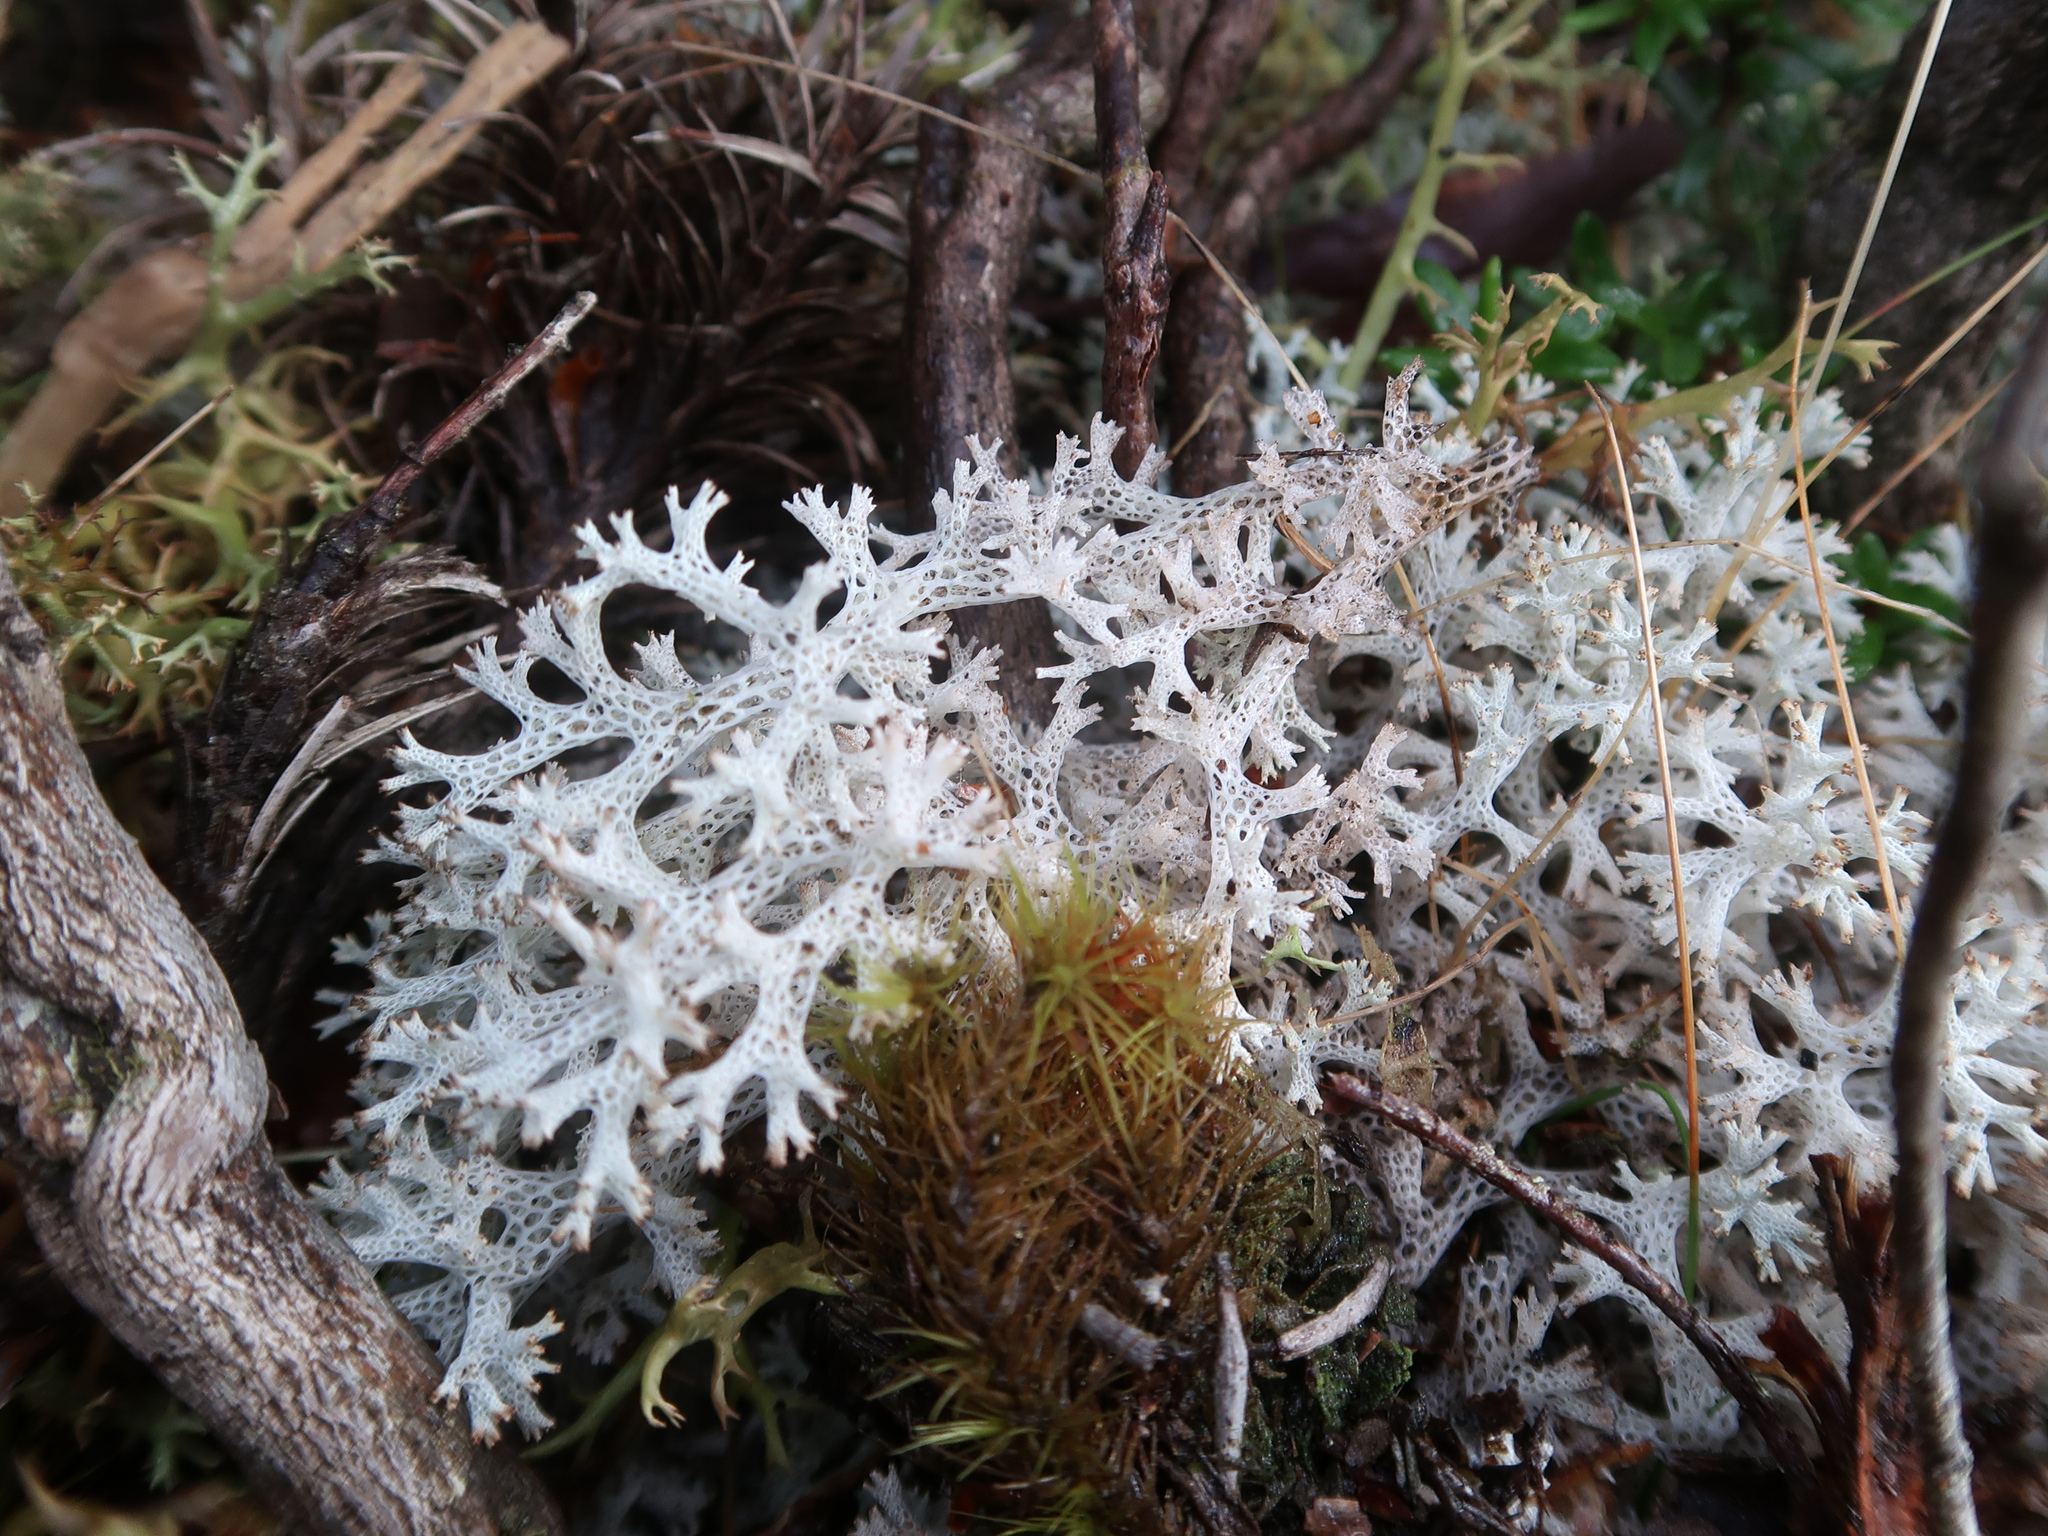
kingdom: Fungi
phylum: Ascomycota
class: Lecanoromycetes
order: Lecanorales
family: Cladoniaceae
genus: Pulchrocladia
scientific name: Pulchrocladia retipora
